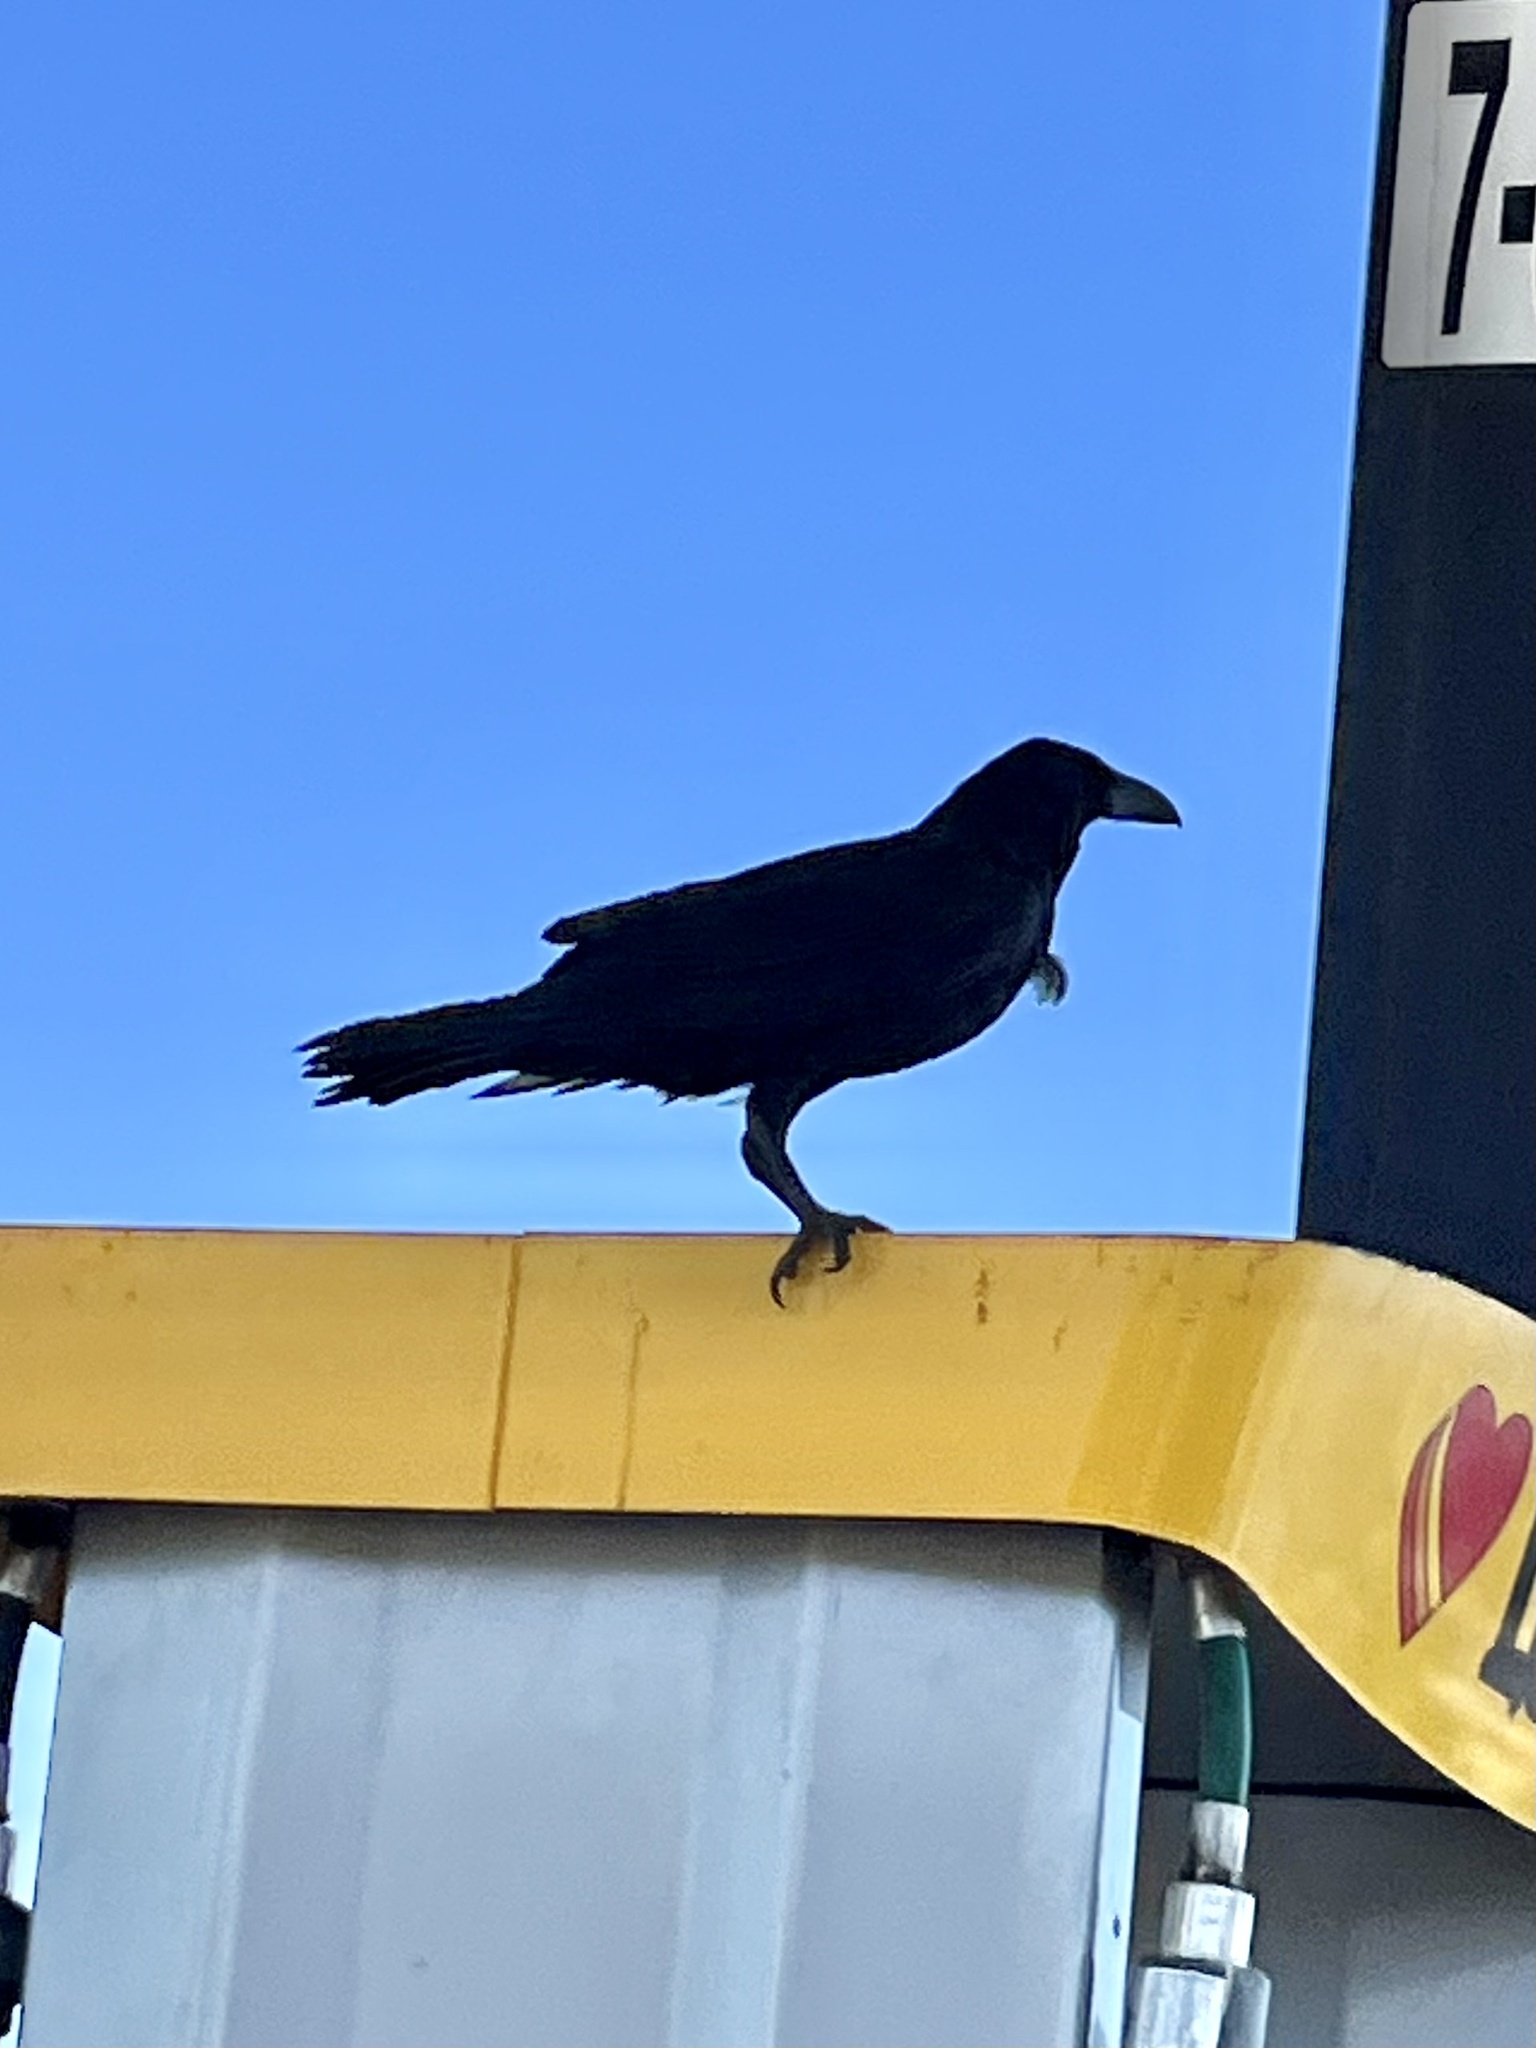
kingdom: Animalia
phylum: Chordata
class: Aves
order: Passeriformes
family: Corvidae
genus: Corvus
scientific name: Corvus corax
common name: Common raven
